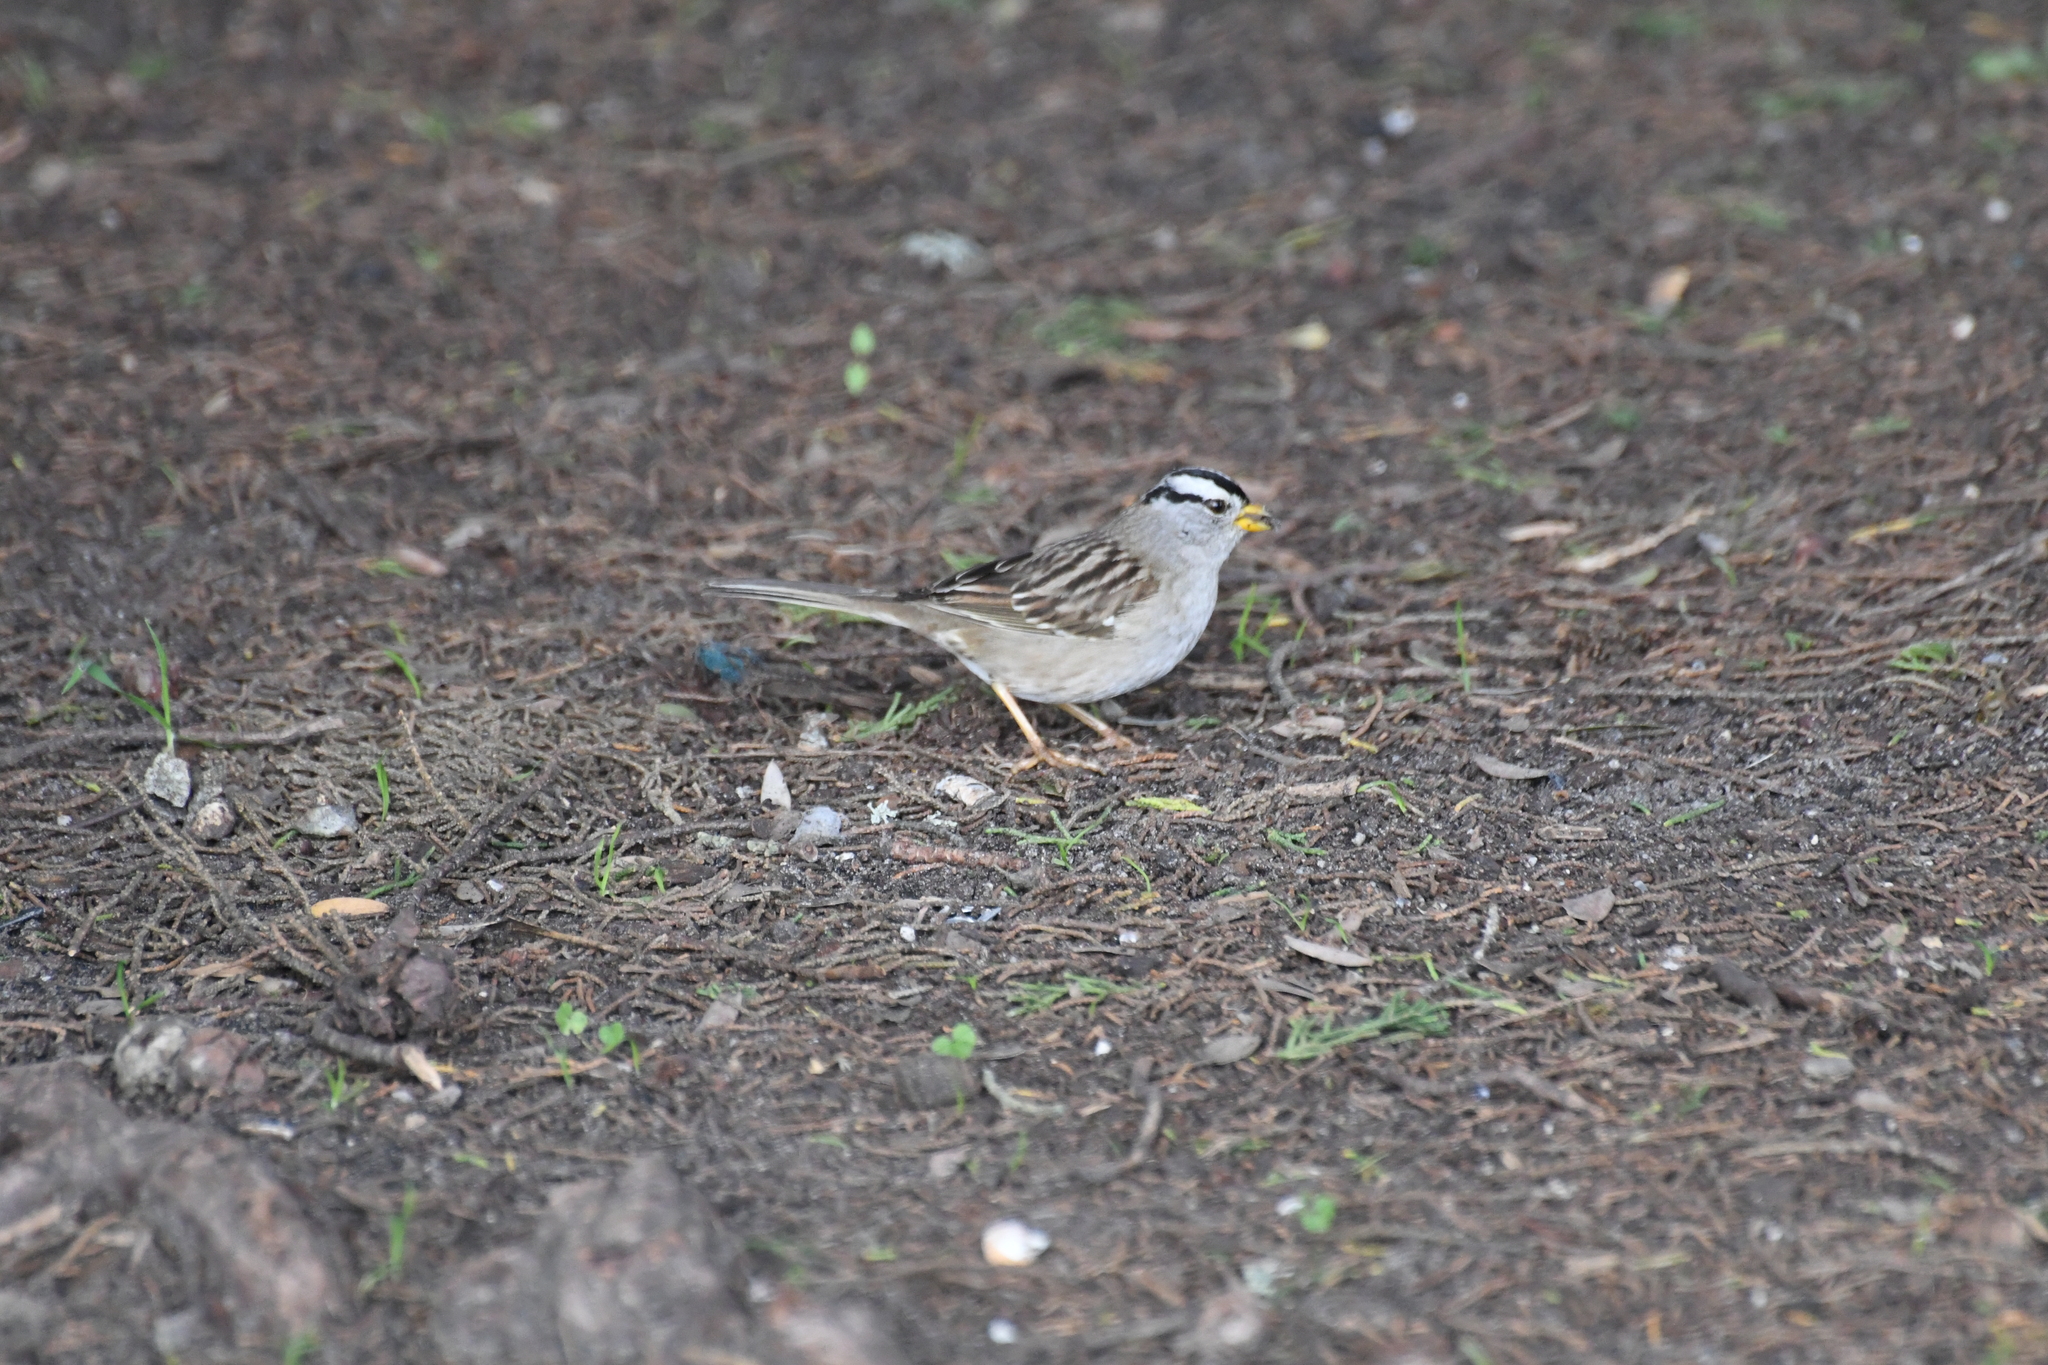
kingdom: Animalia
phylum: Chordata
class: Aves
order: Passeriformes
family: Passerellidae
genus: Zonotrichia
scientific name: Zonotrichia leucophrys
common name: White-crowned sparrow
